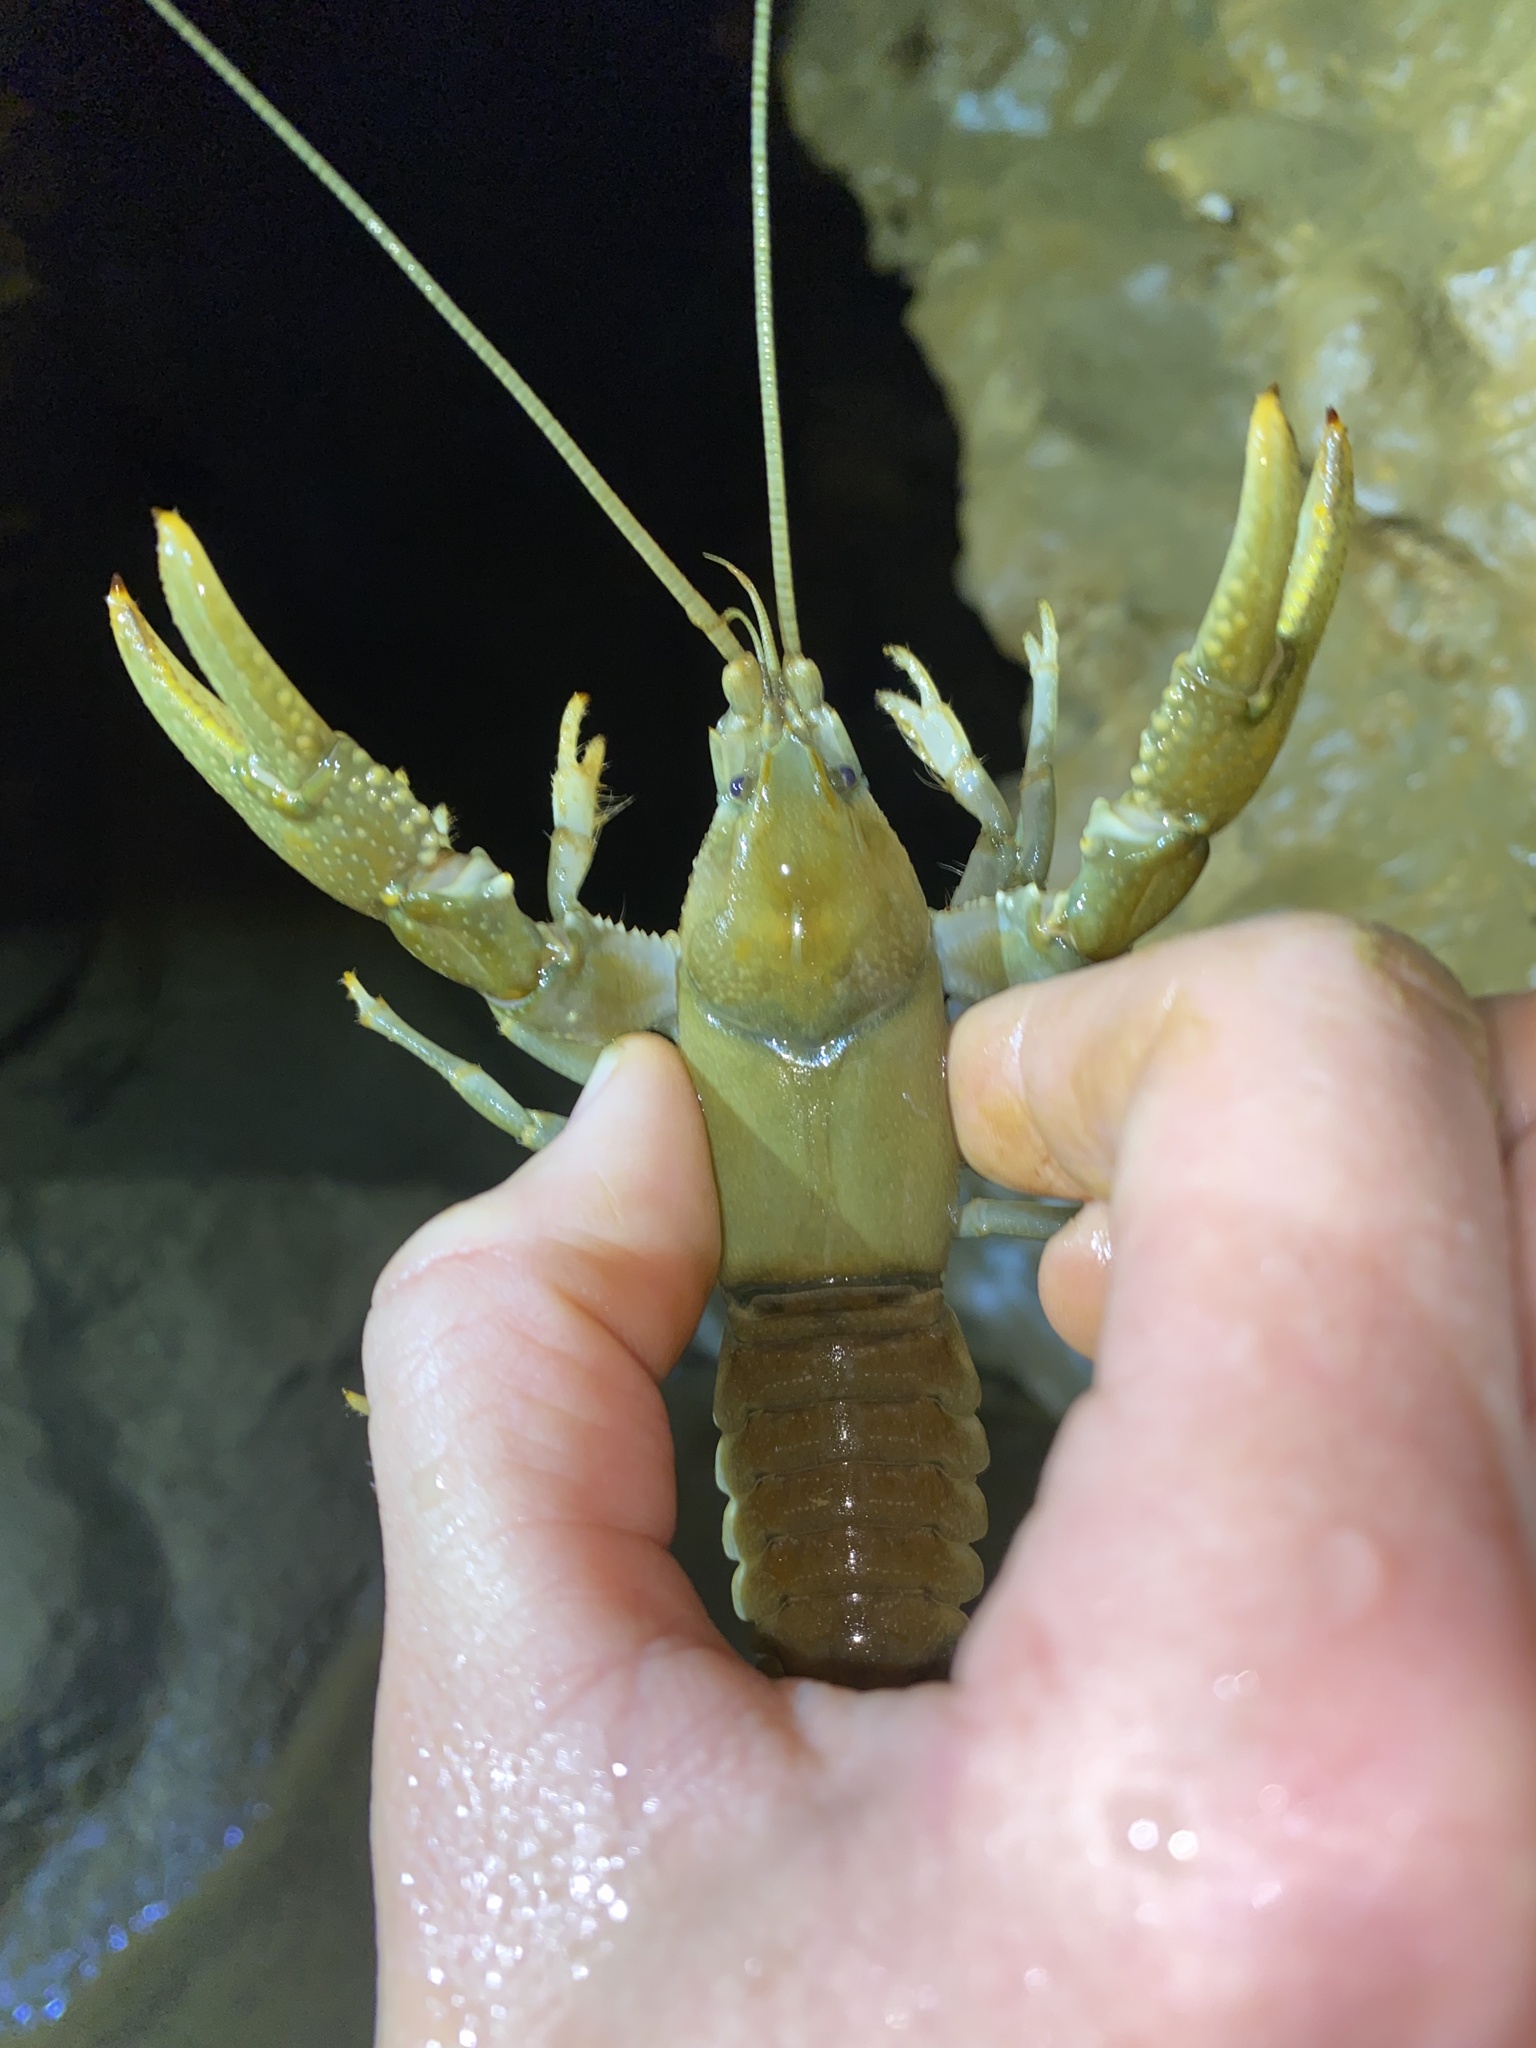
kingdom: Animalia
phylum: Arthropoda
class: Malacostraca
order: Decapoda
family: Cambaridae
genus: Cambarus
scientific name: Cambarus tenebrosus
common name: Cavespring crayfish
